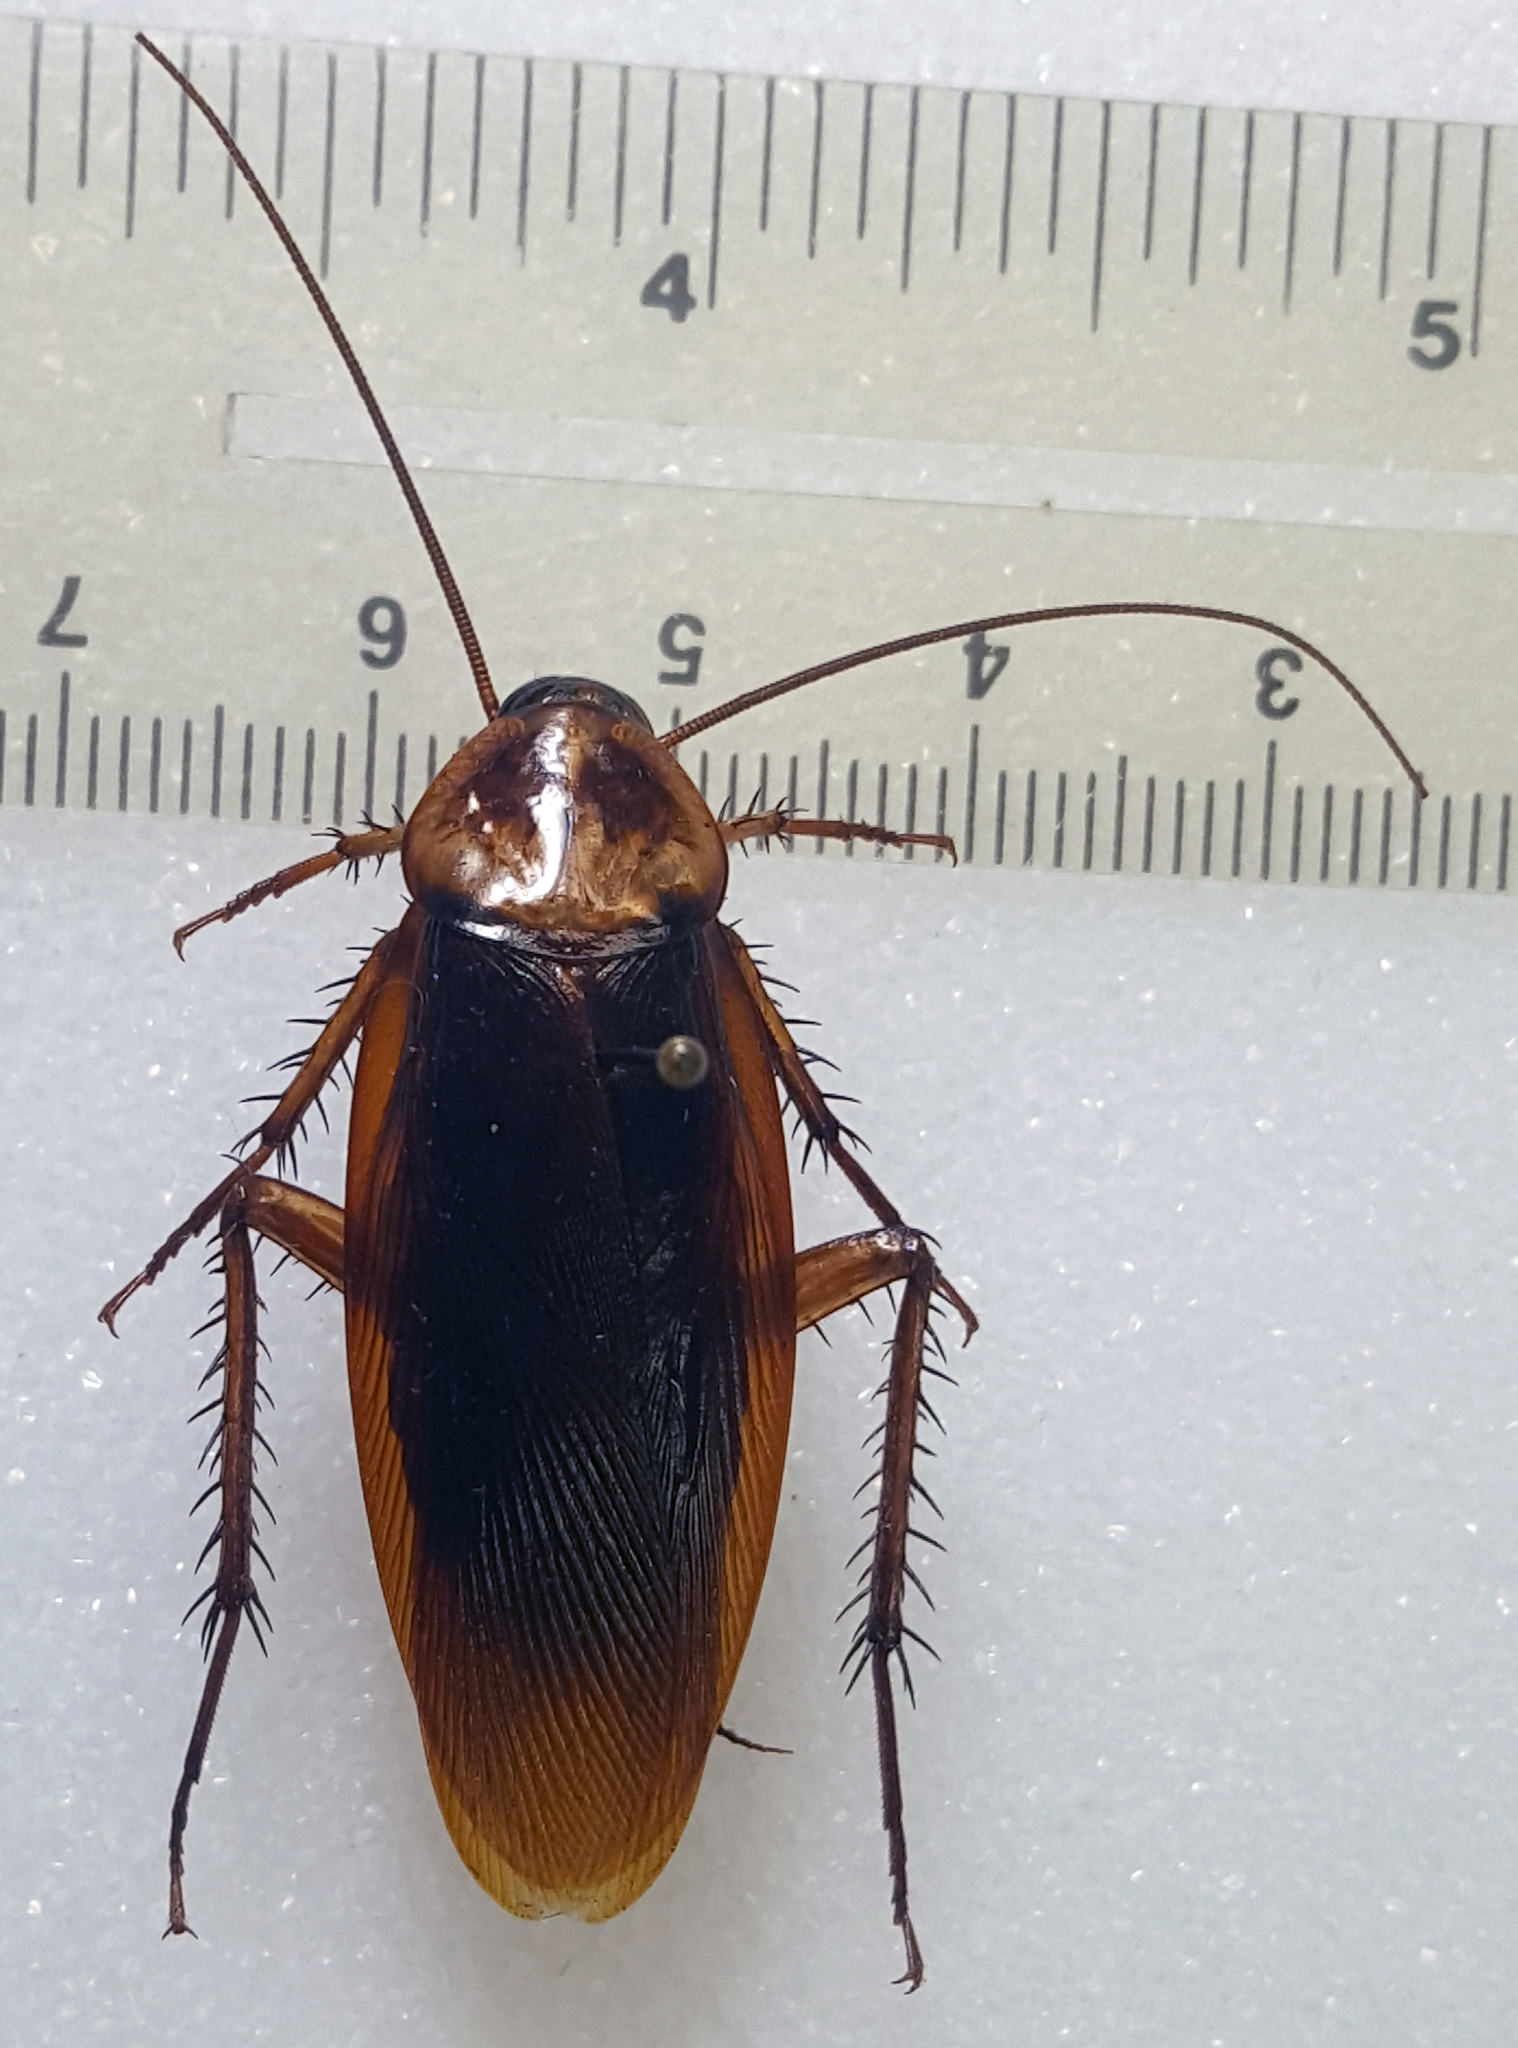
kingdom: Animalia
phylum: Arthropoda
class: Insecta
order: Blattodea
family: Blattidae
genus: Periplaneta
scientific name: Periplaneta americana
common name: American cockroach
